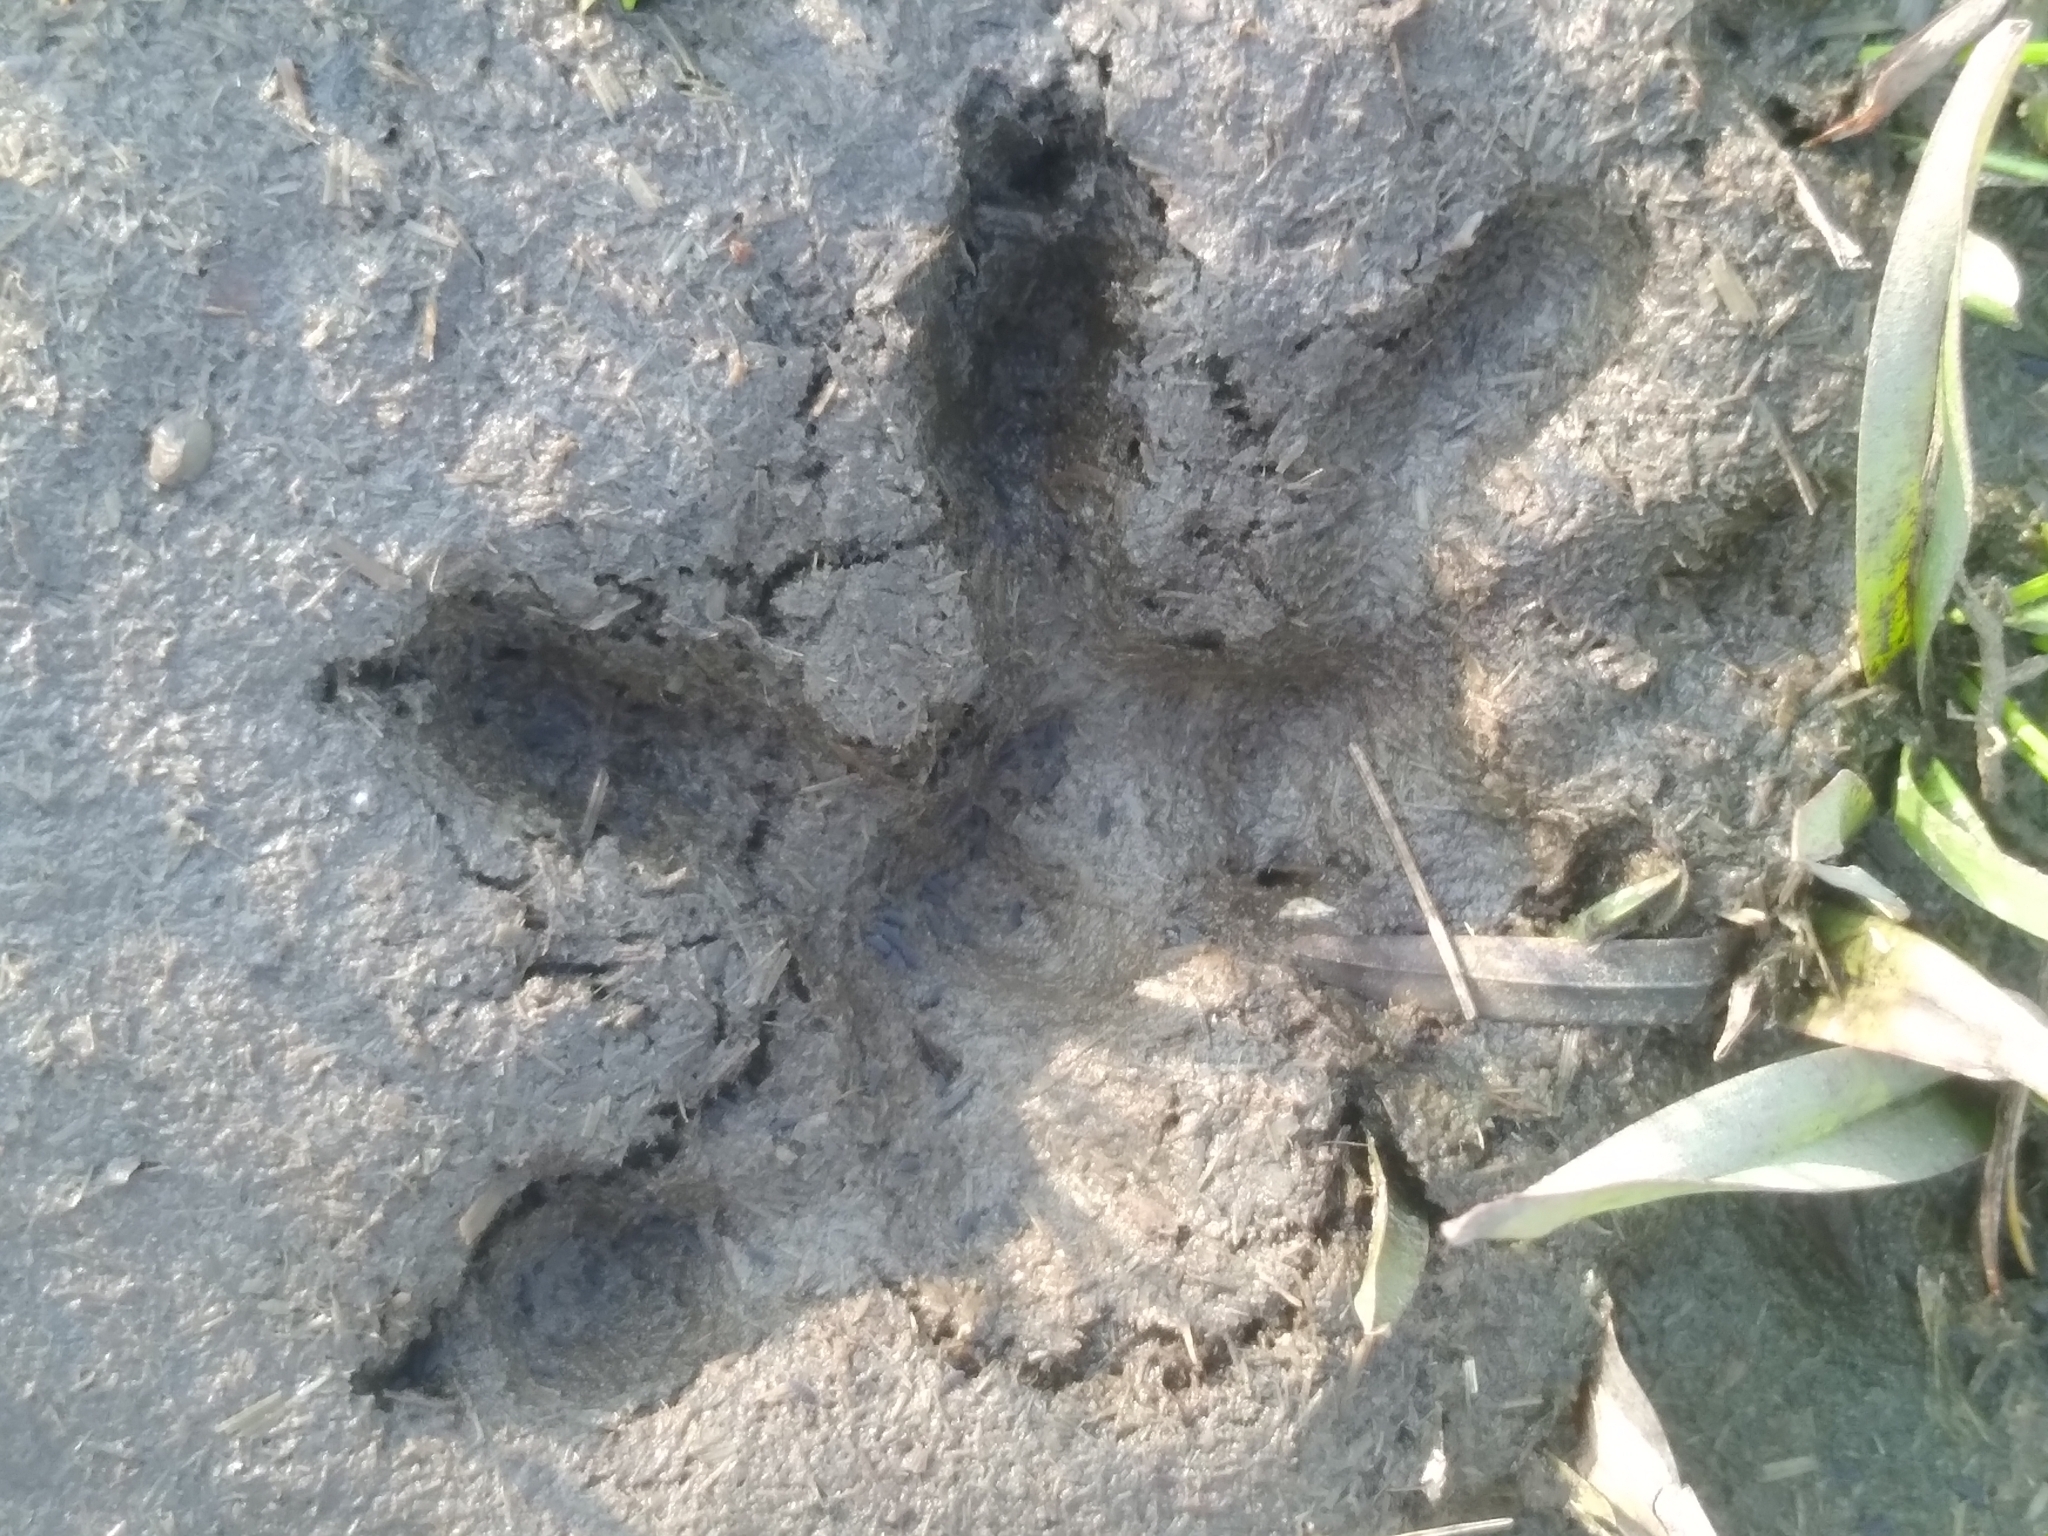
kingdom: Animalia
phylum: Chordata
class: Mammalia
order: Didelphimorphia
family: Didelphidae
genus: Didelphis
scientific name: Didelphis albiventris
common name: White-eared opossum
